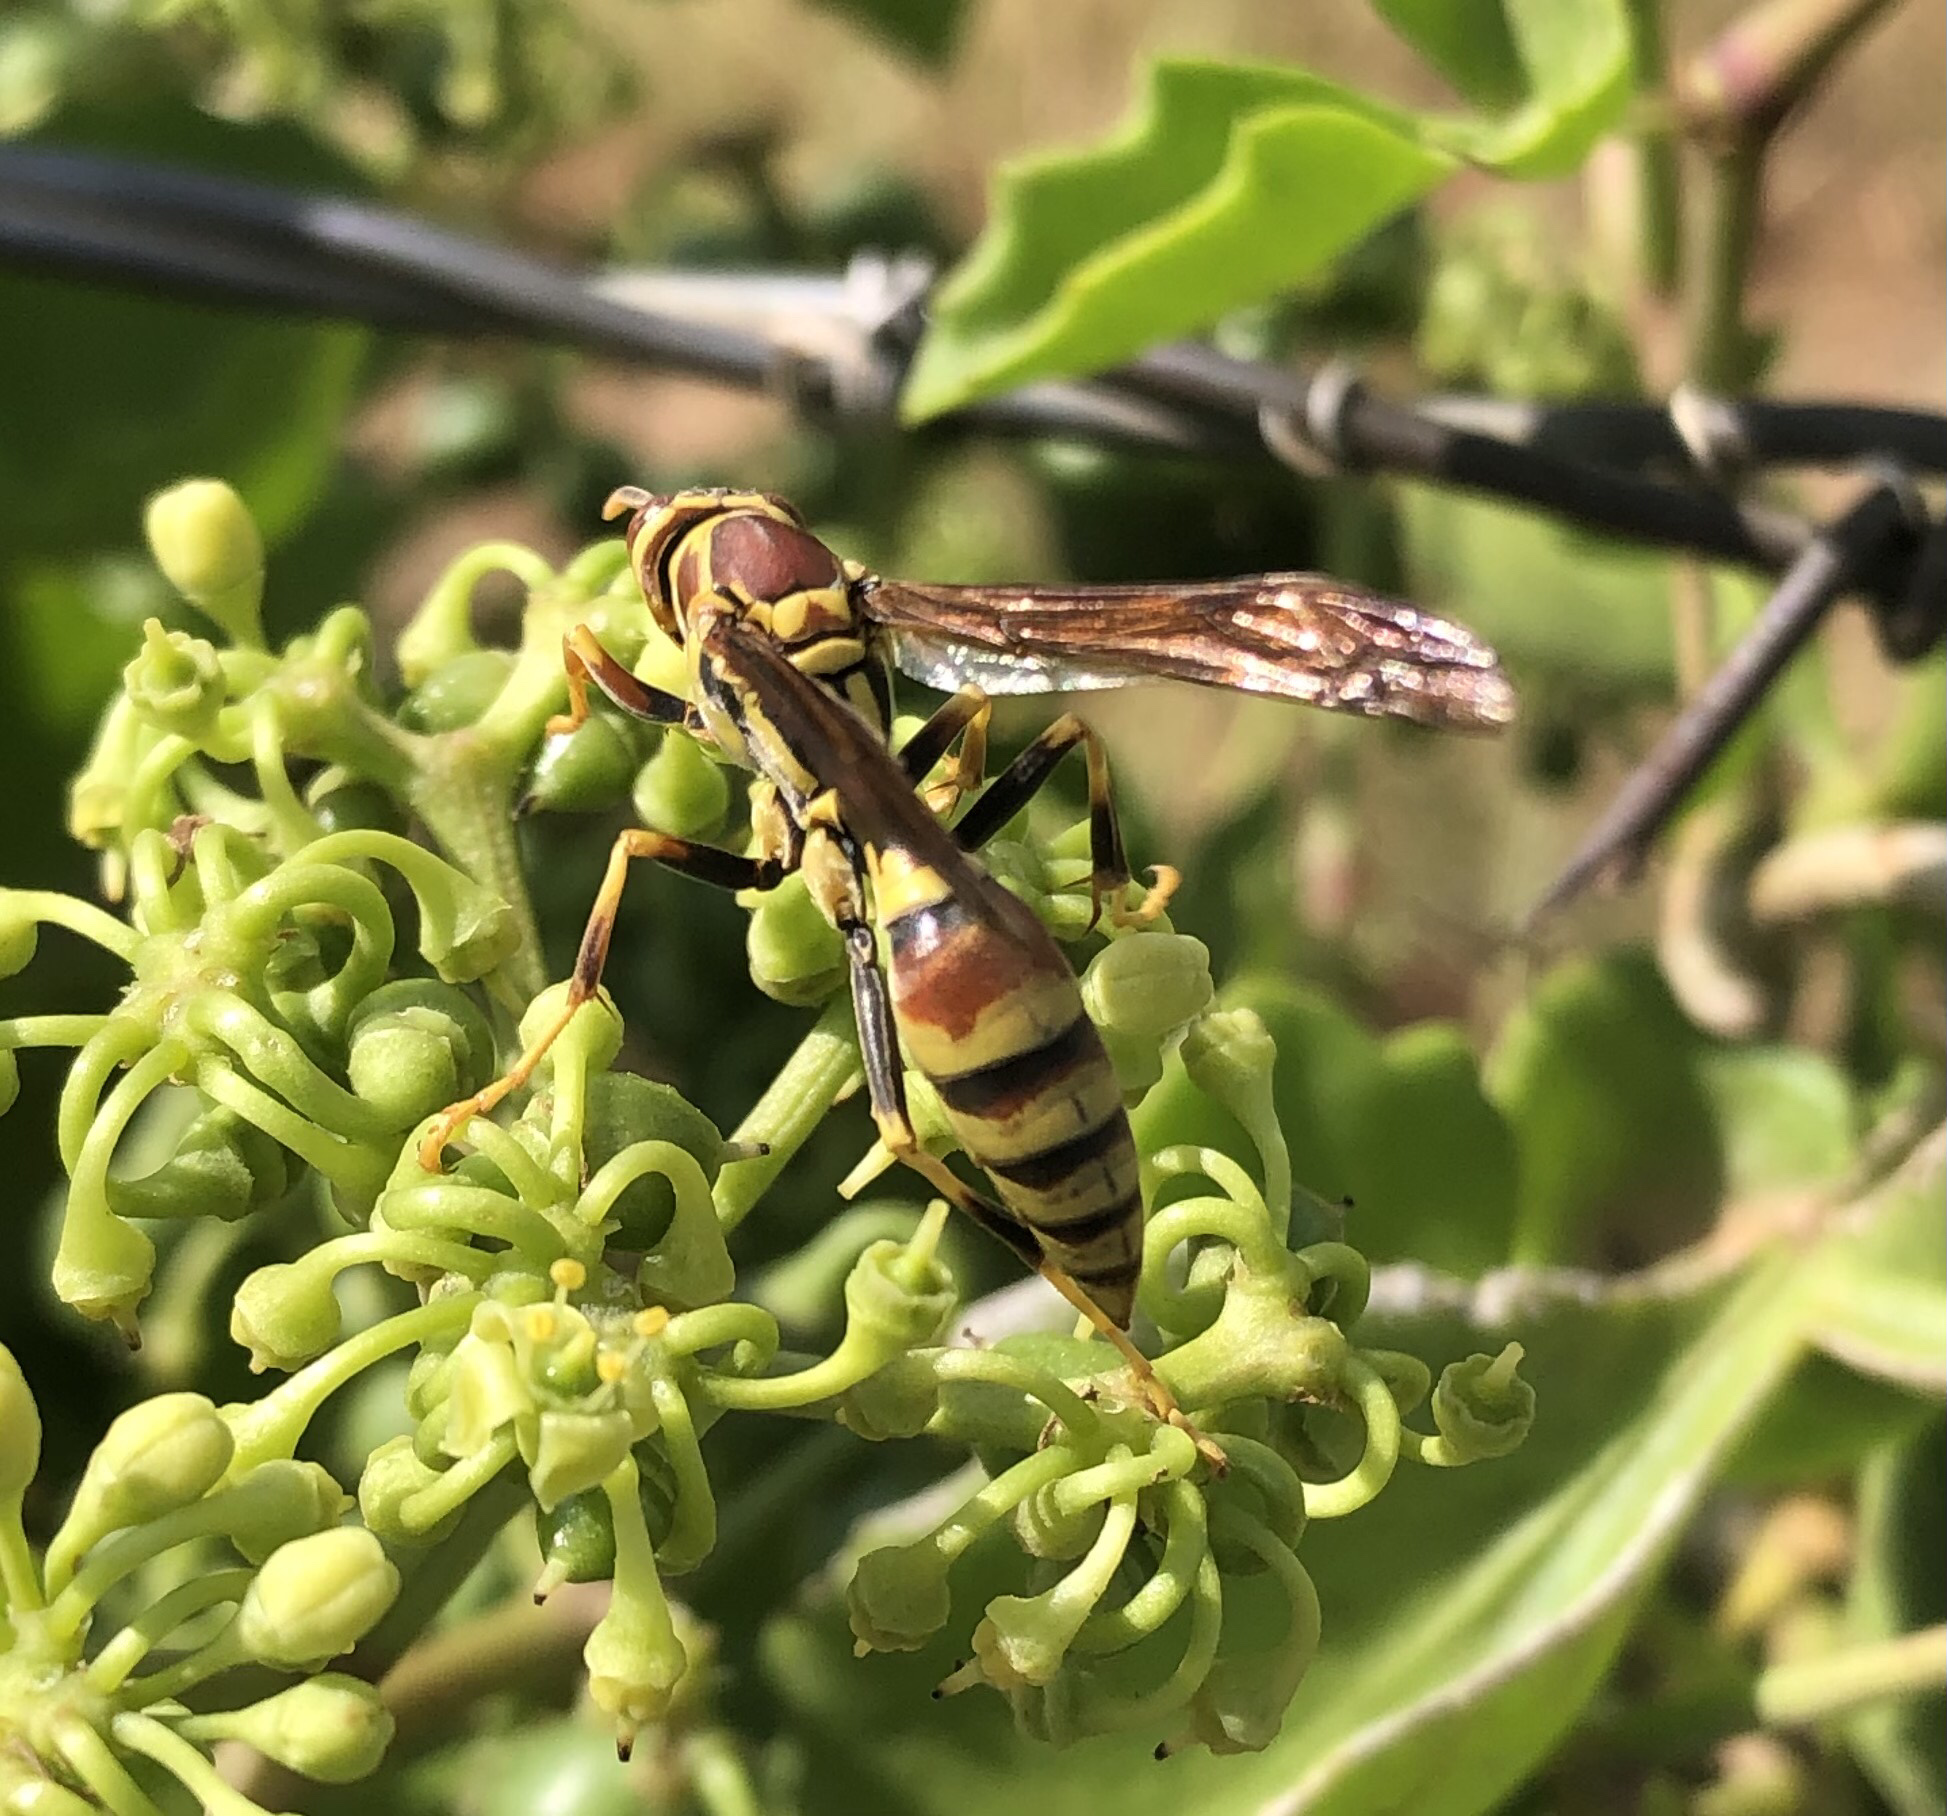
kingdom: Animalia
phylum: Arthropoda
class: Insecta
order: Hymenoptera
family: Eumenidae
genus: Polistes
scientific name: Polistes exclamans
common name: Paper wasp
